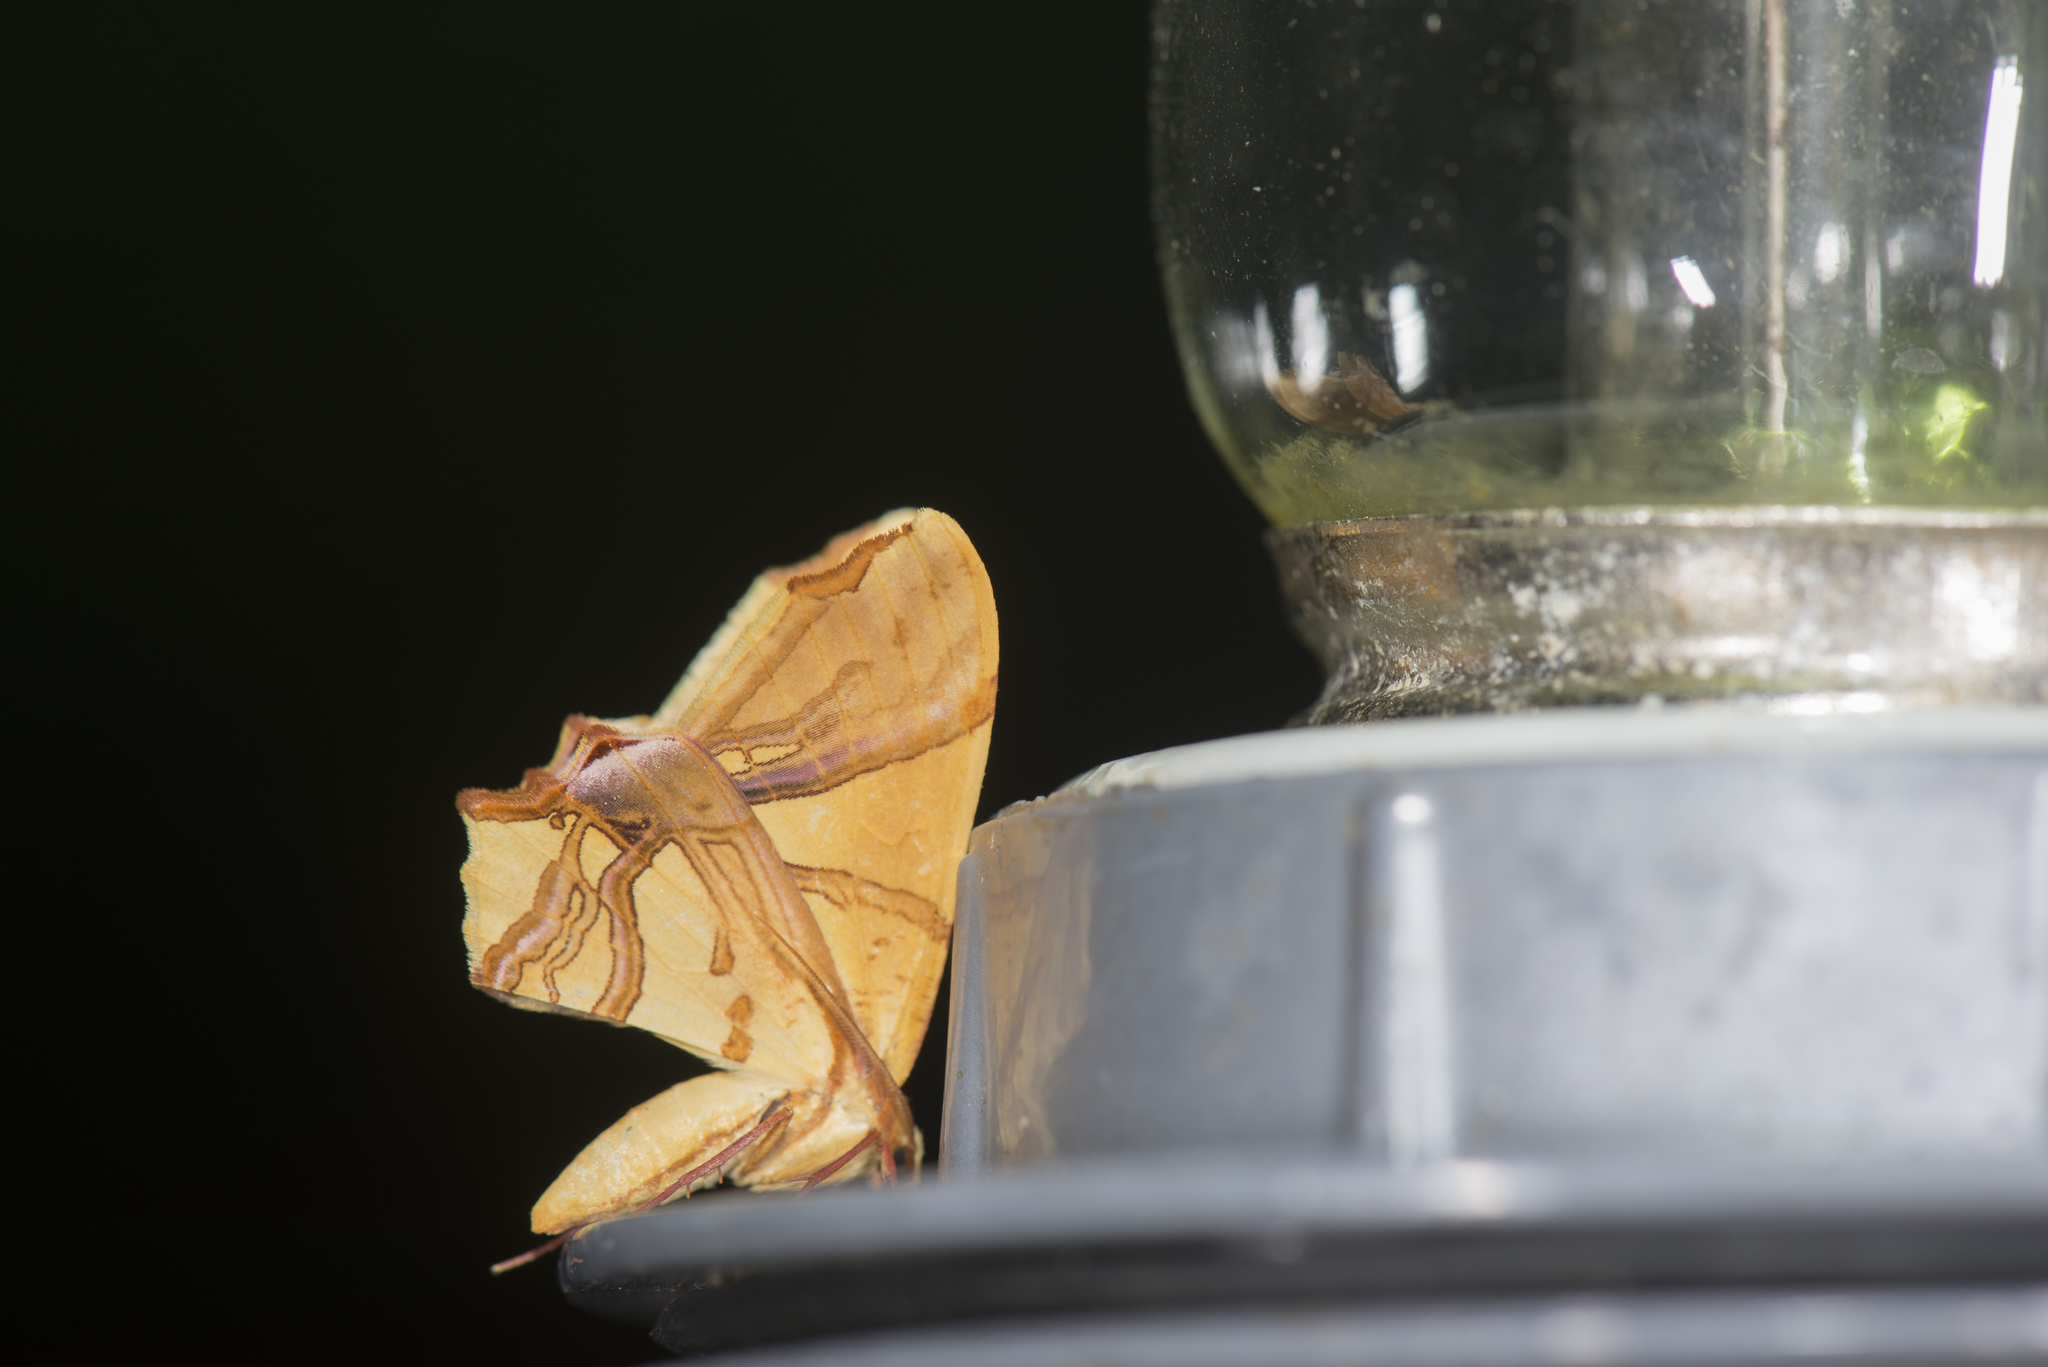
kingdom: Animalia
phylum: Arthropoda
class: Insecta
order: Lepidoptera
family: Geometridae
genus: Trotocraspeda
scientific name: Trotocraspeda divaricata
